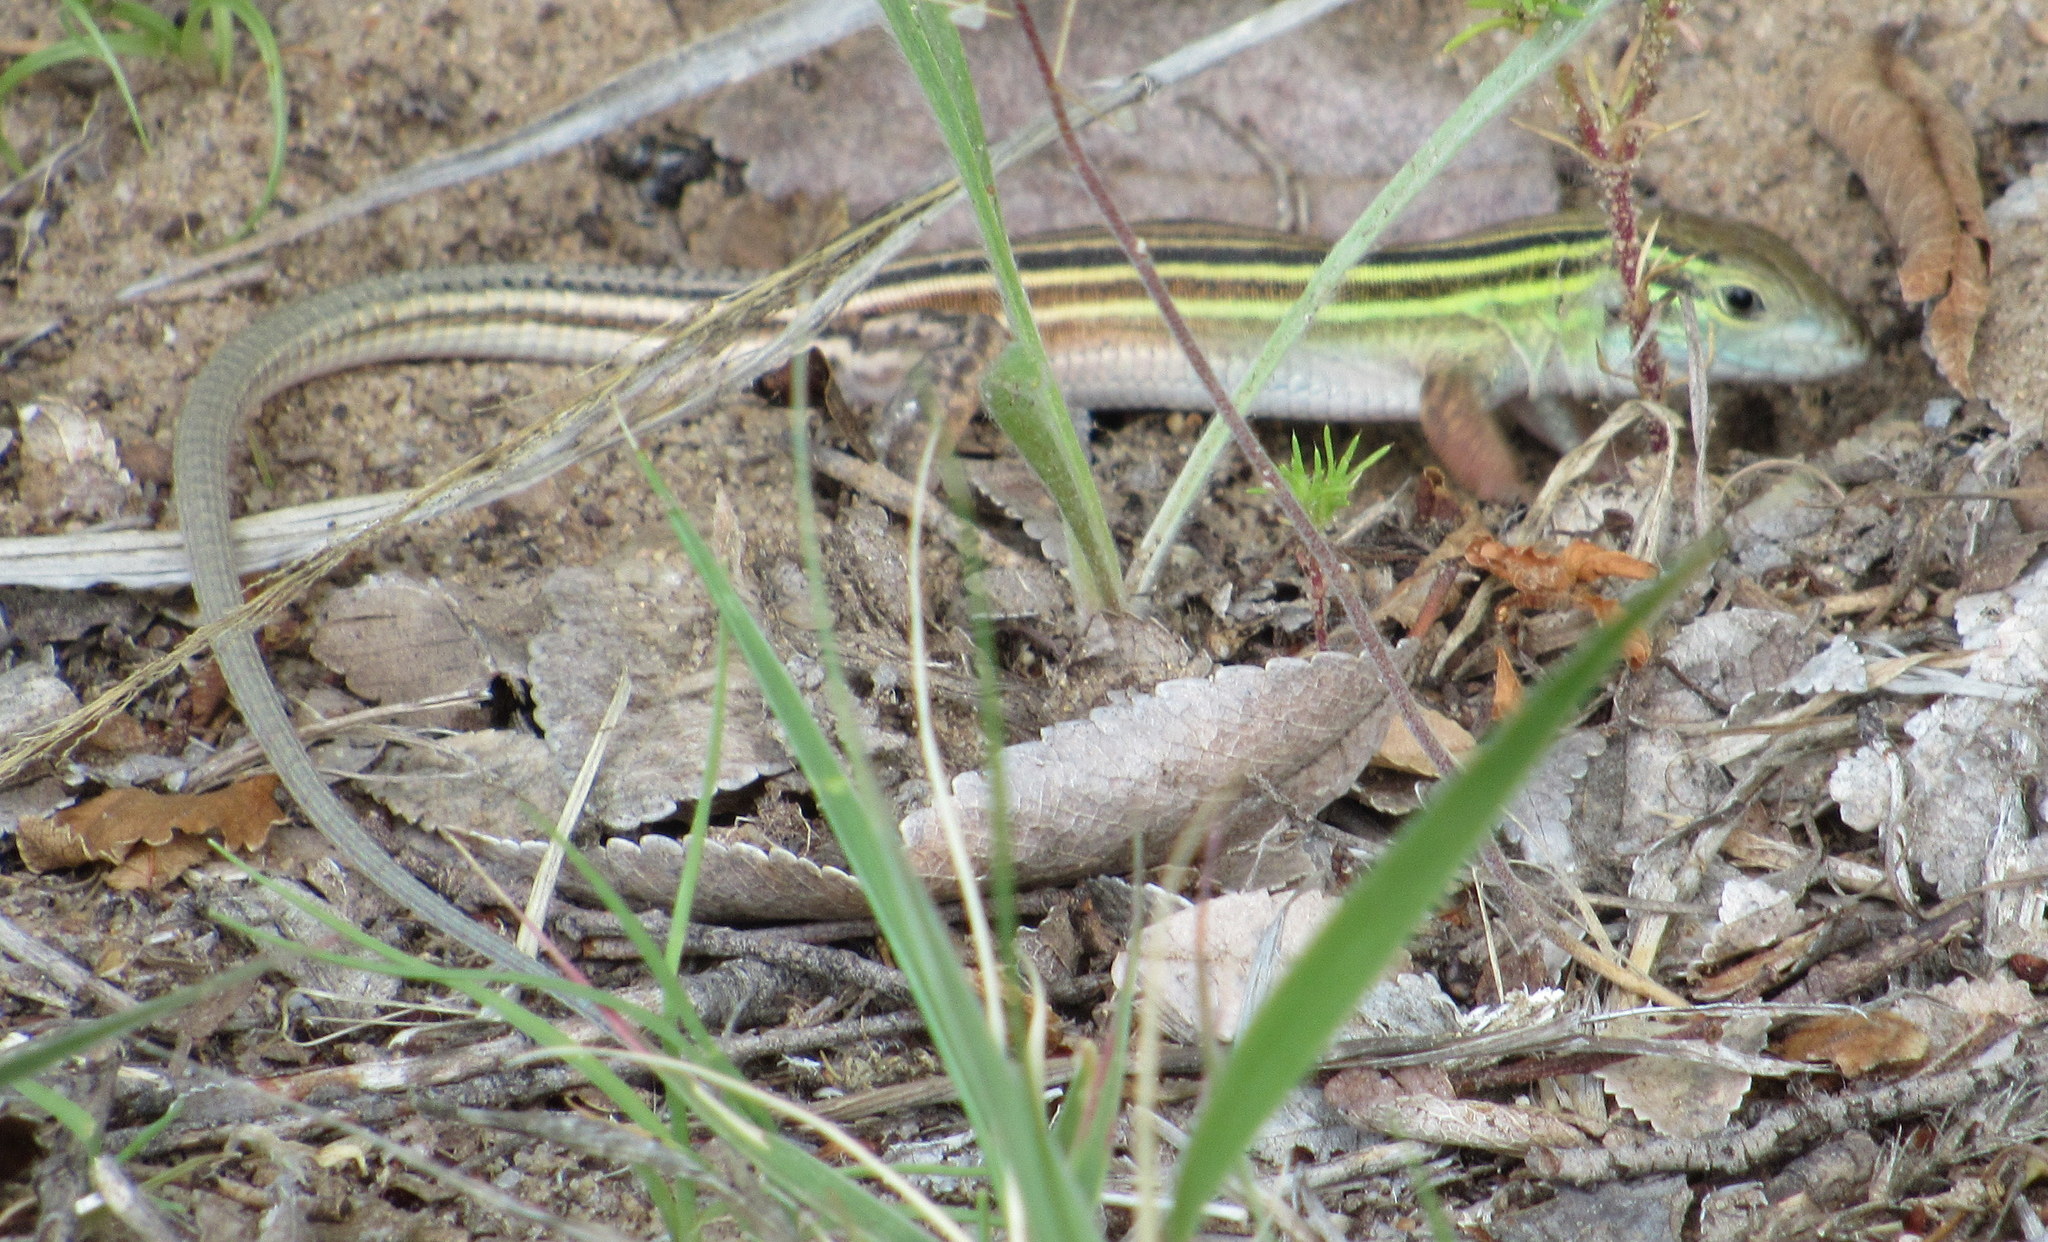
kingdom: Animalia
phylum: Chordata
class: Squamata
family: Teiidae
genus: Aspidoscelis
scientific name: Aspidoscelis sexlineatus
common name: Six-lined racerunner
